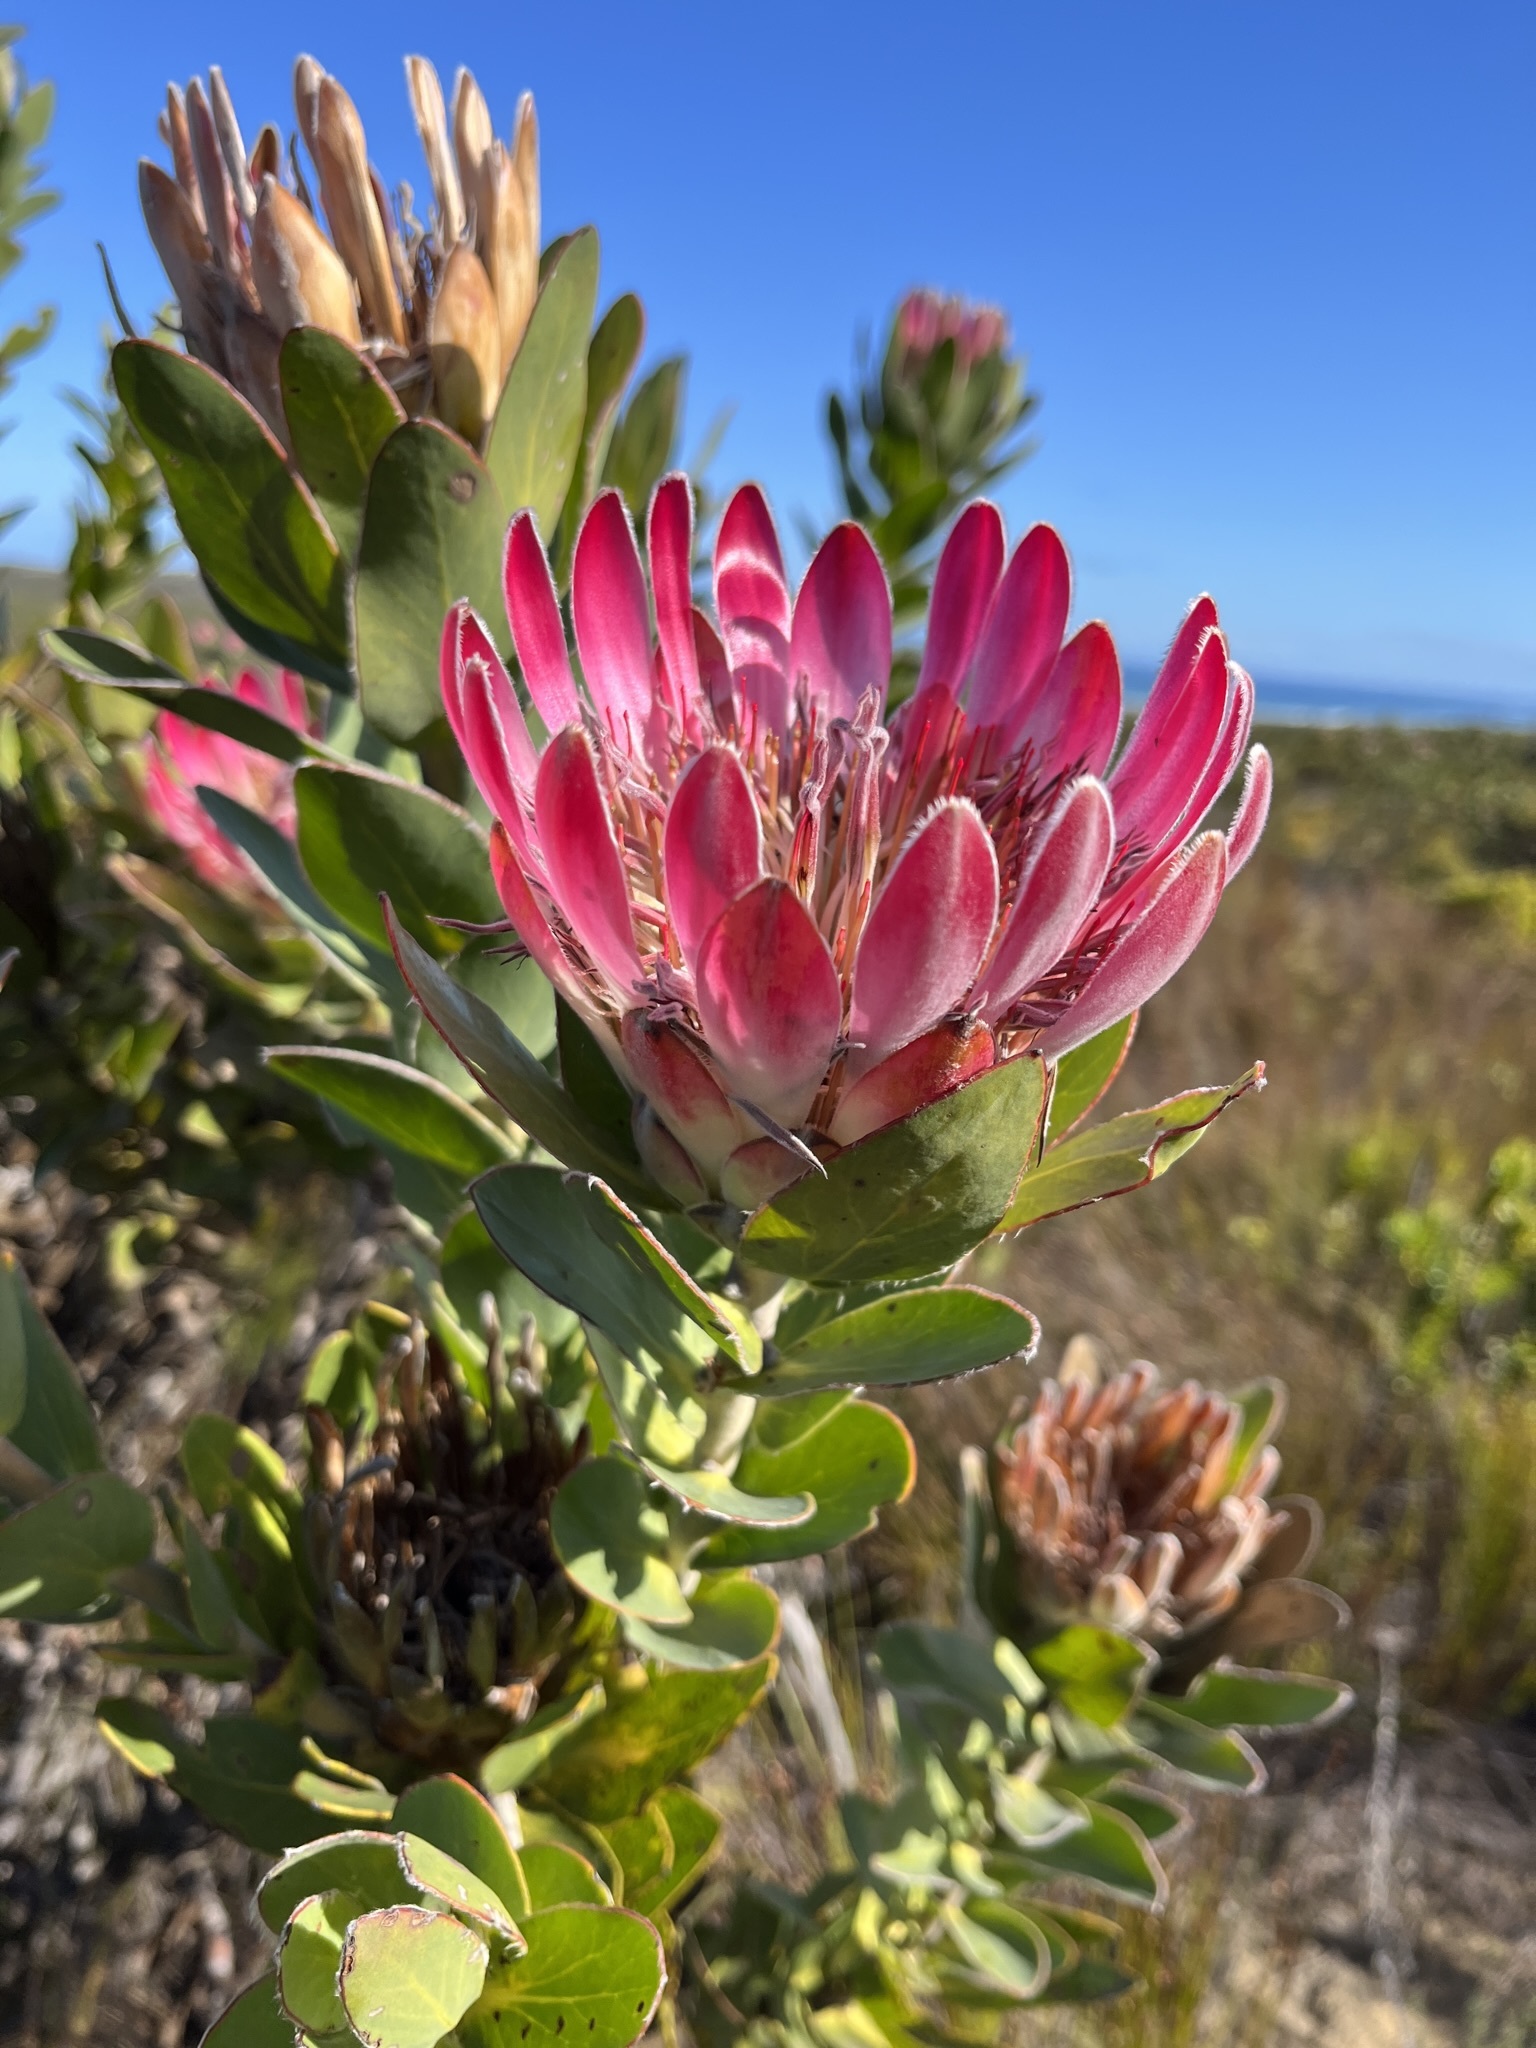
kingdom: Plantae
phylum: Tracheophyta
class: Magnoliopsida
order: Proteales
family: Proteaceae
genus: Protea
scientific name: Protea compacta
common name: Bot river protea
